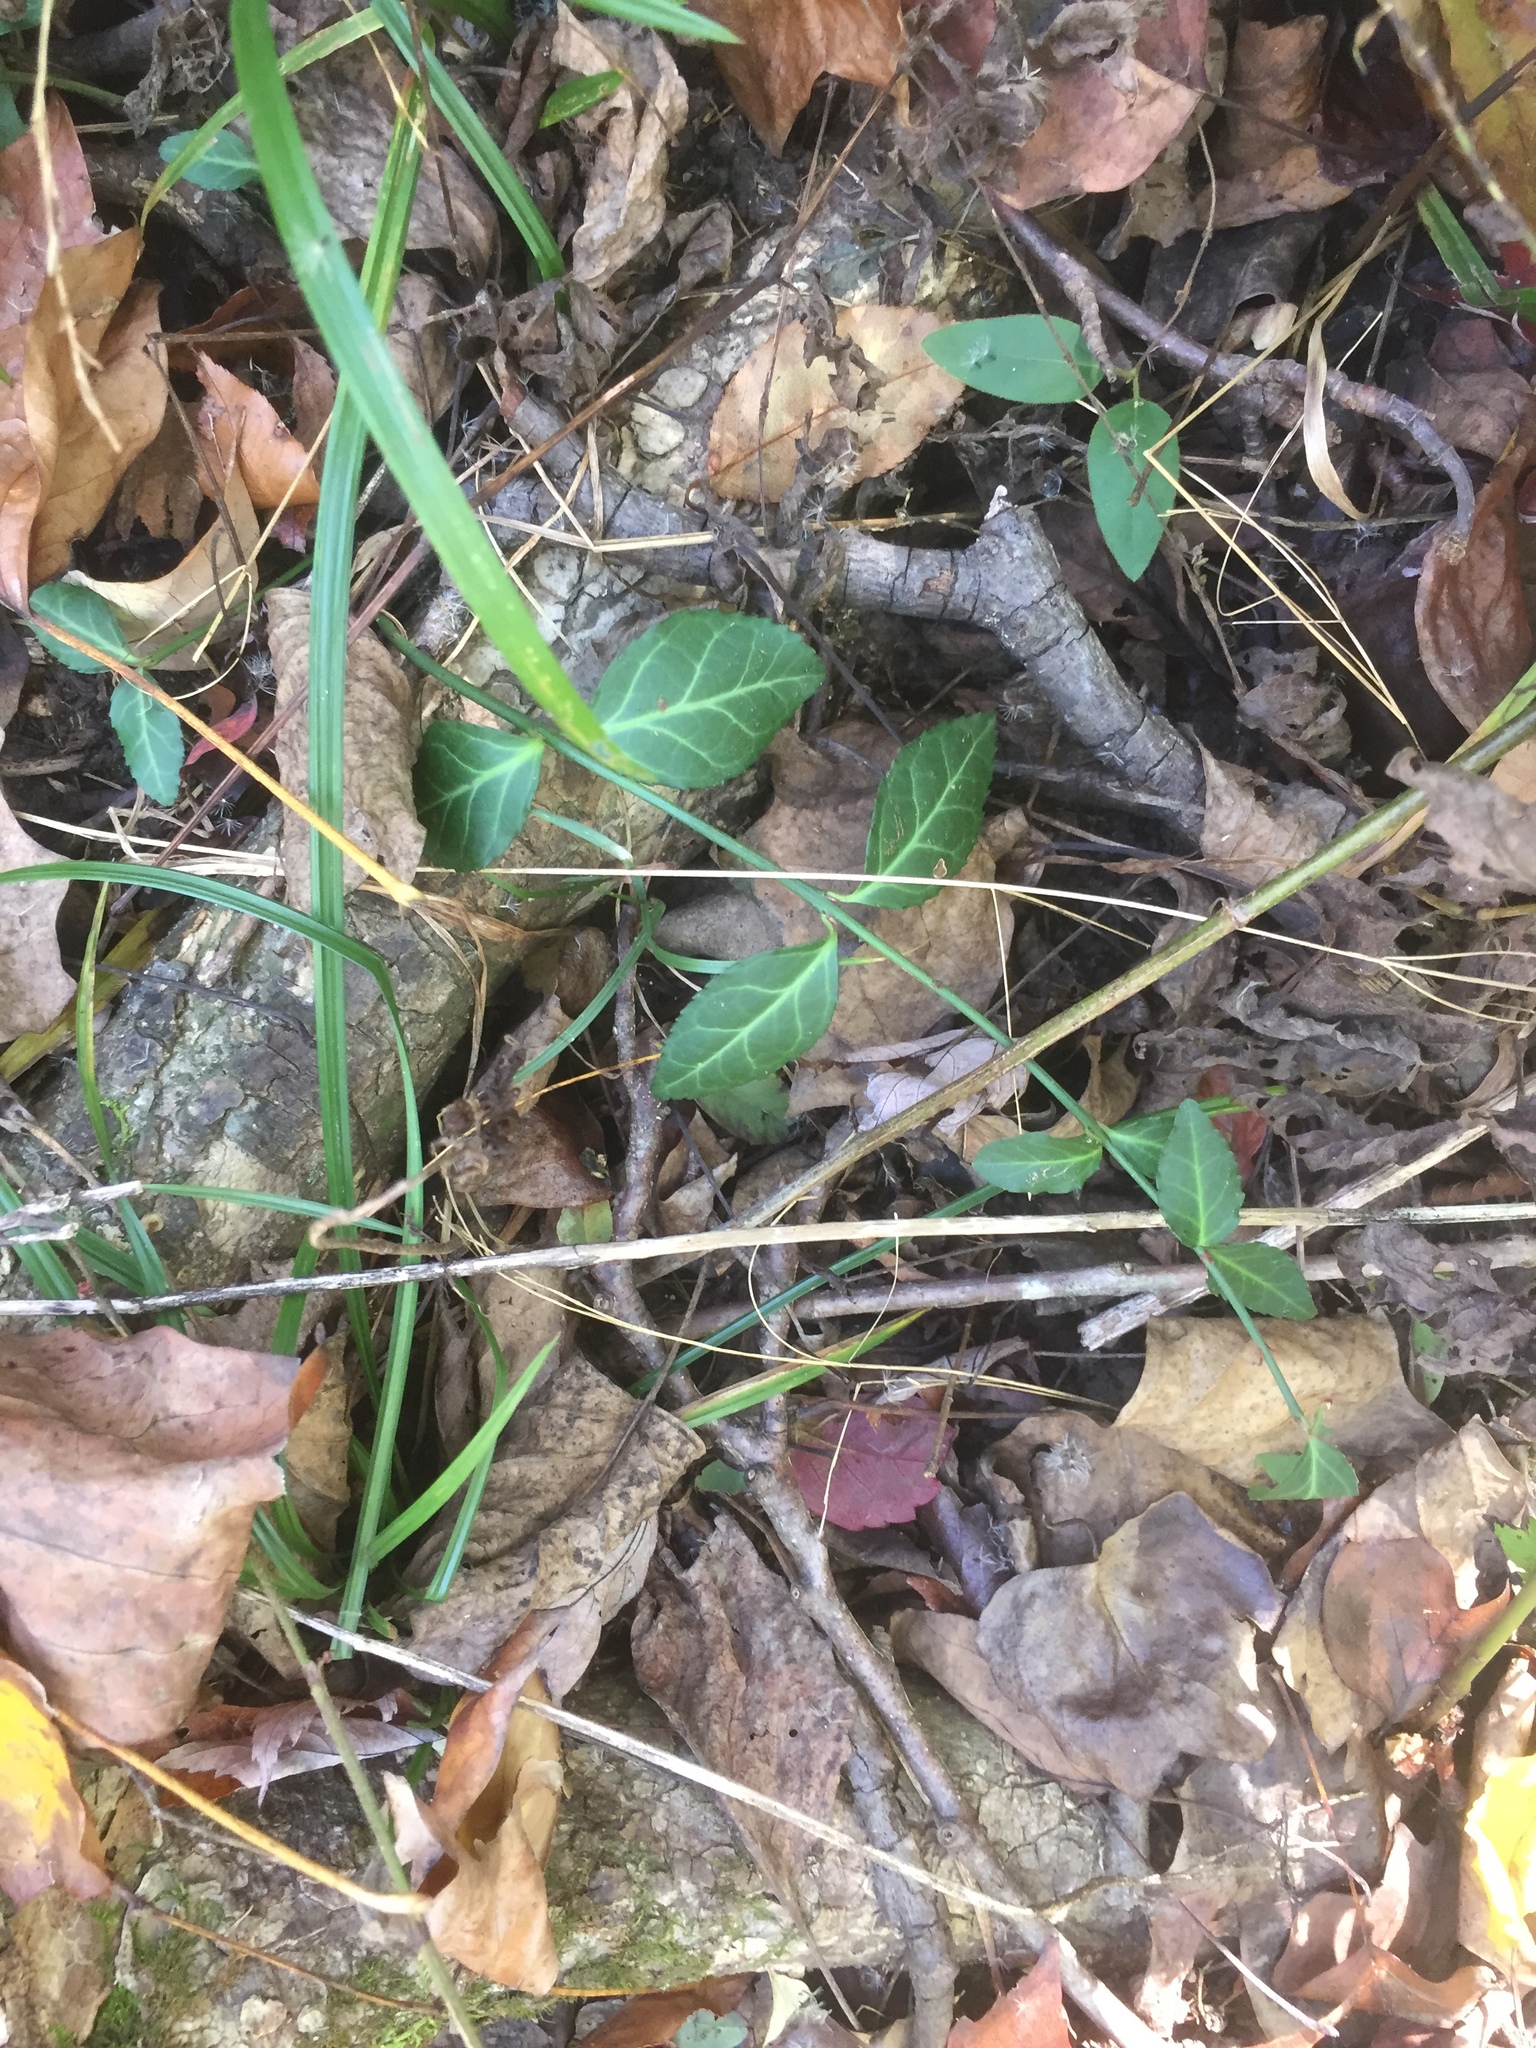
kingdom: Plantae
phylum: Tracheophyta
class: Magnoliopsida
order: Celastrales
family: Celastraceae
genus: Euonymus
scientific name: Euonymus fortunei
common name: Climbing euonymus
